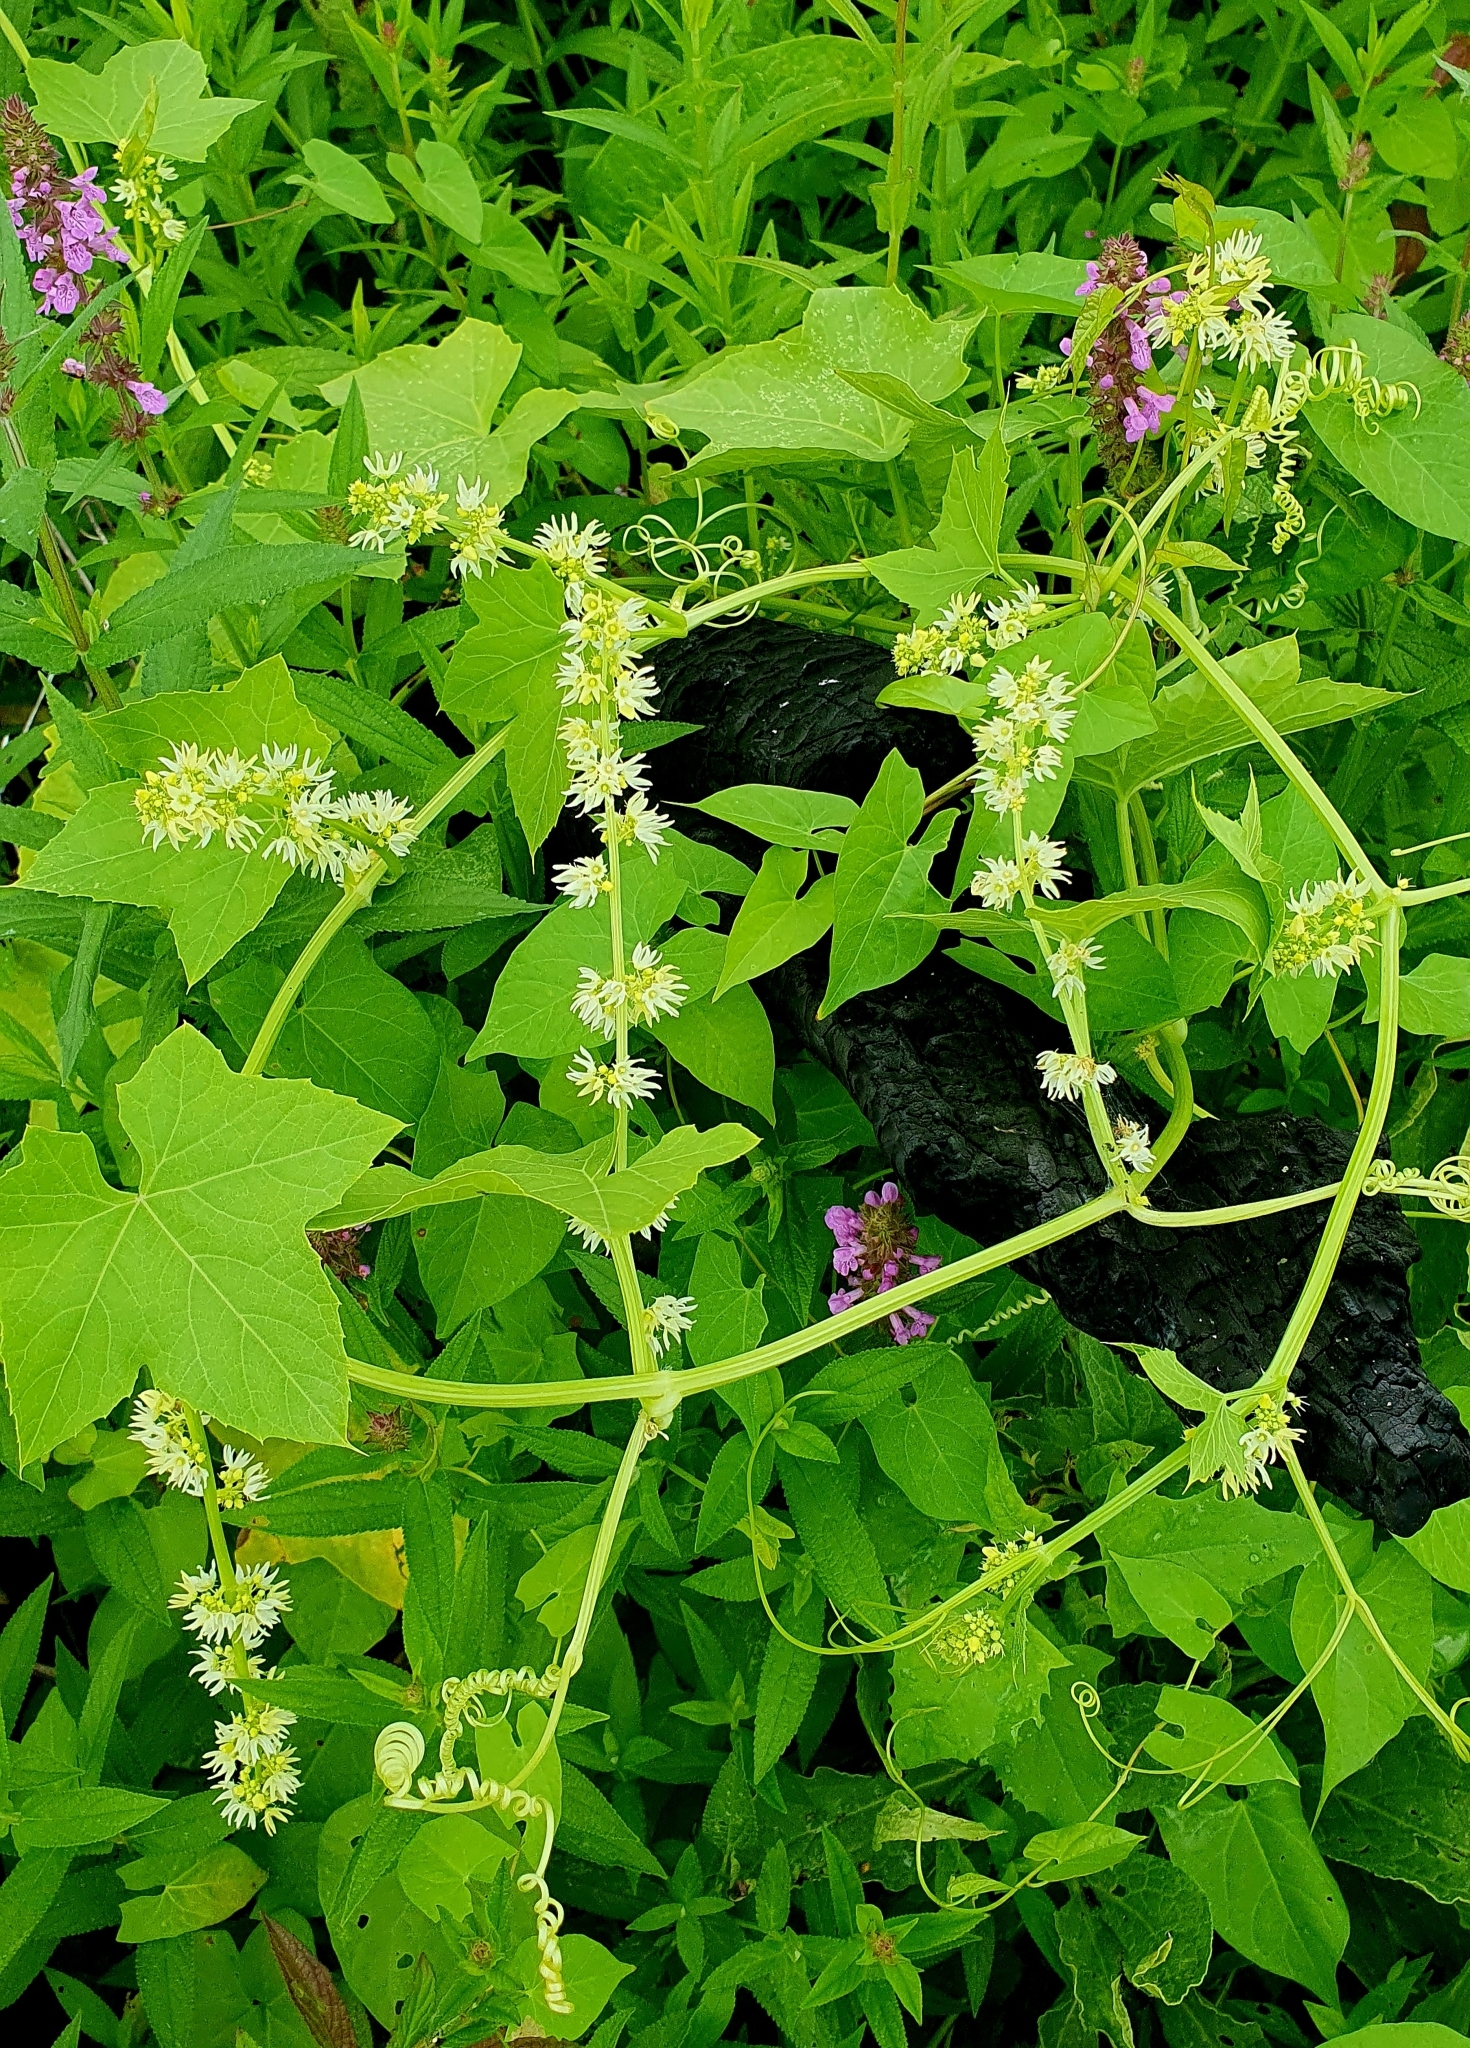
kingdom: Plantae
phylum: Tracheophyta
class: Magnoliopsida
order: Cucurbitales
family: Cucurbitaceae
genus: Echinocystis
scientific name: Echinocystis lobata
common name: Wild cucumber
